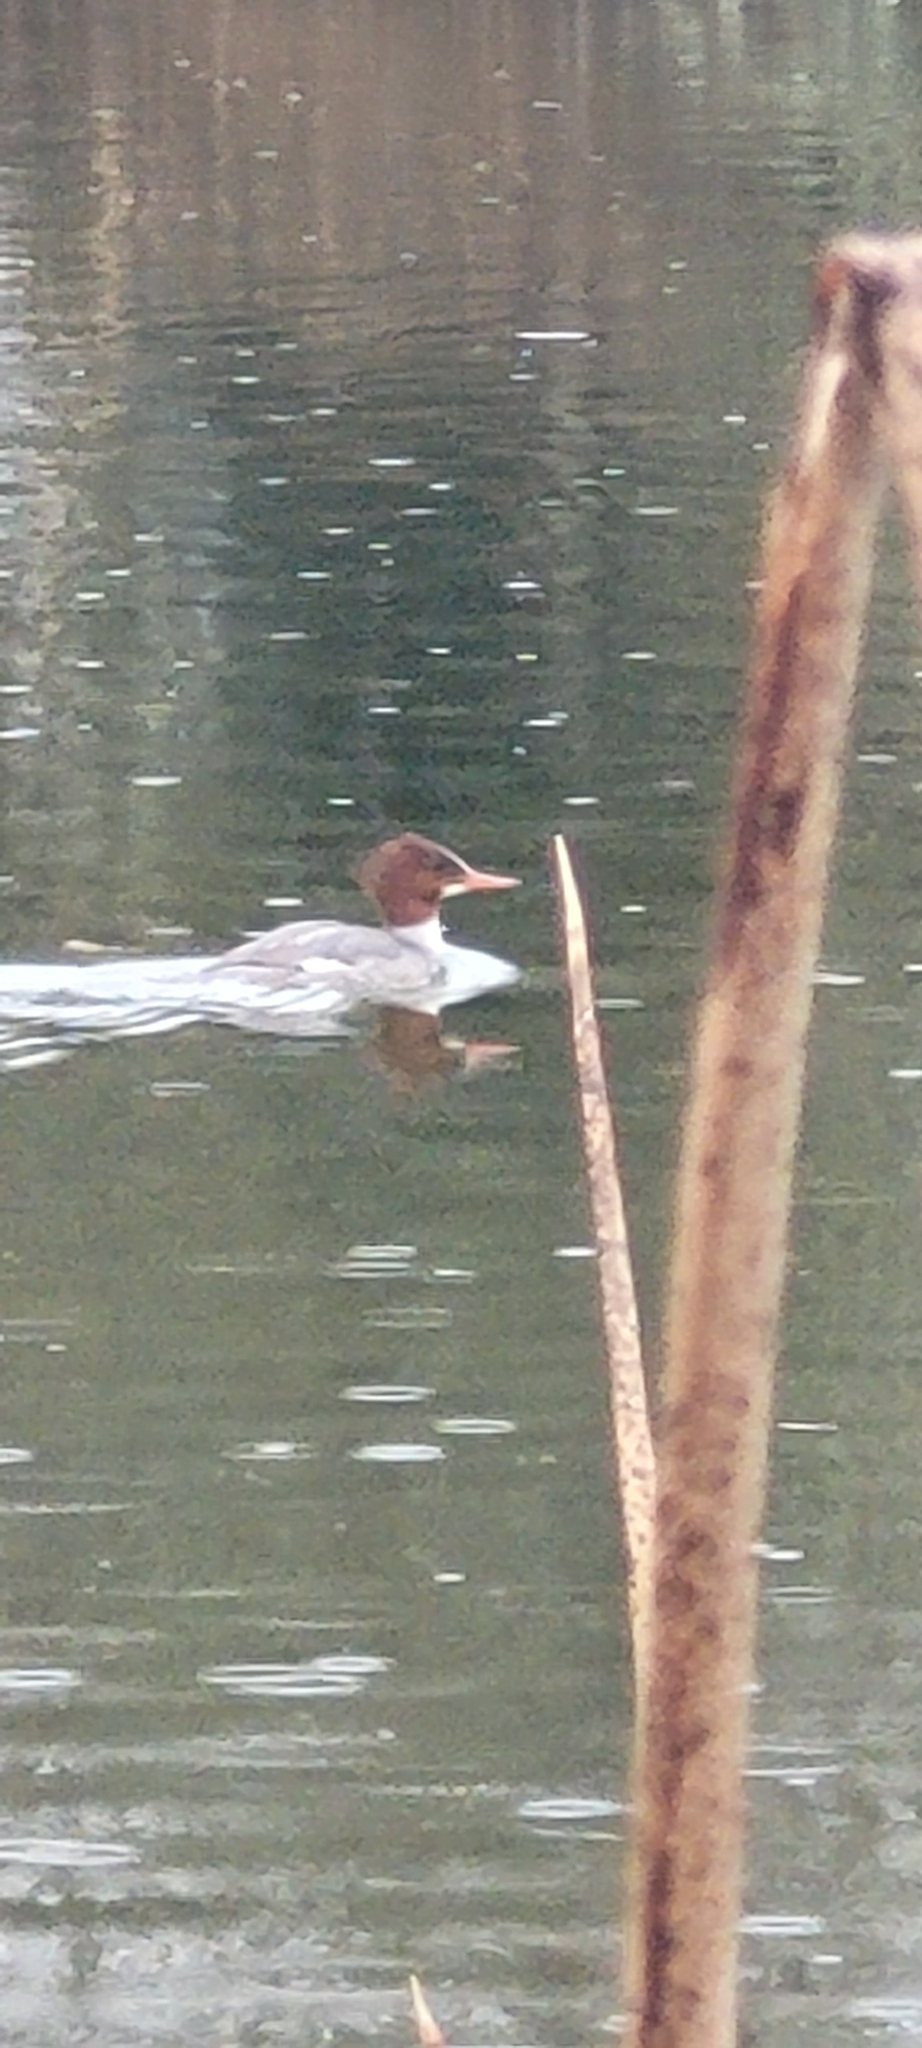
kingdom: Animalia
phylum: Chordata
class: Aves
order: Anseriformes
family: Anatidae
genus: Mergus
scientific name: Mergus merganser
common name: Common merganser
